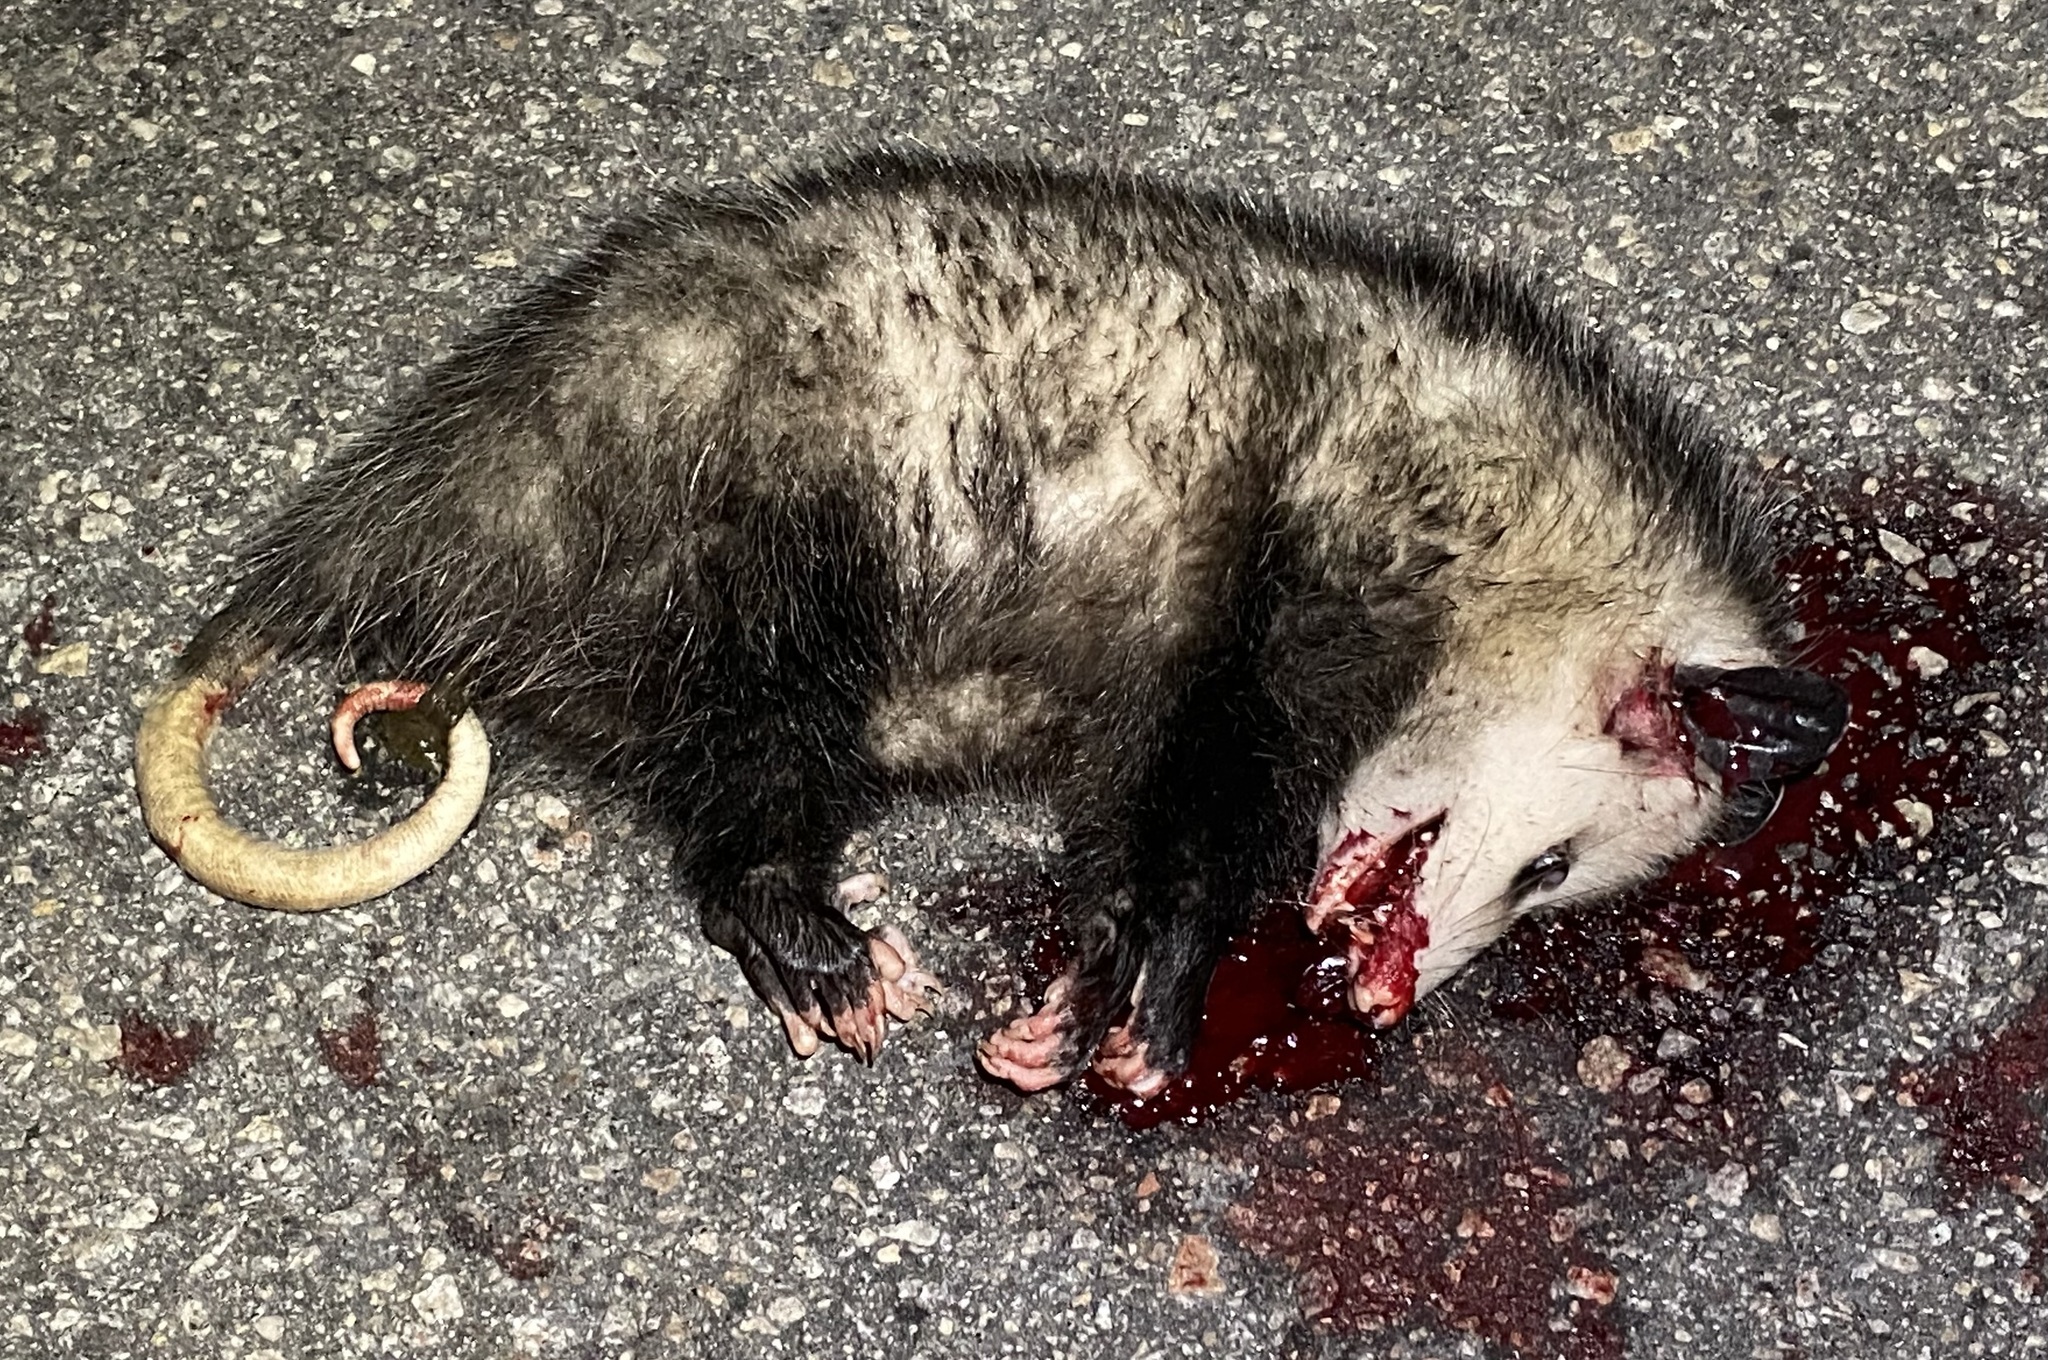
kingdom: Animalia
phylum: Chordata
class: Mammalia
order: Didelphimorphia
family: Didelphidae
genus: Didelphis
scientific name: Didelphis virginiana
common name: Virginia opossum
